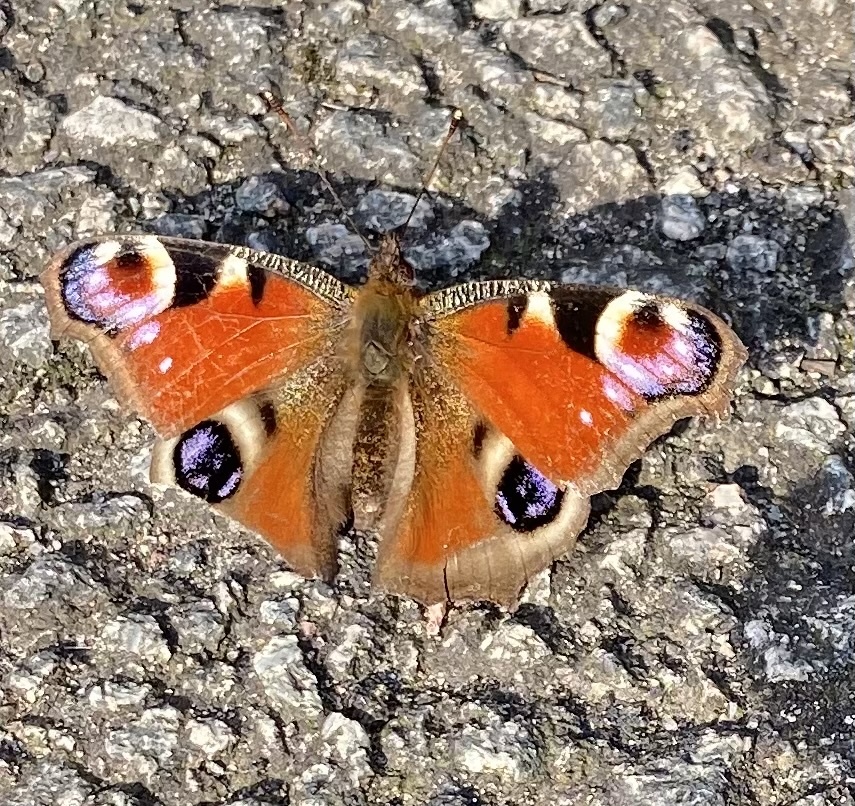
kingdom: Animalia
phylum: Arthropoda
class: Insecta
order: Lepidoptera
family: Nymphalidae
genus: Aglais
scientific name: Aglais io
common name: Peacock
